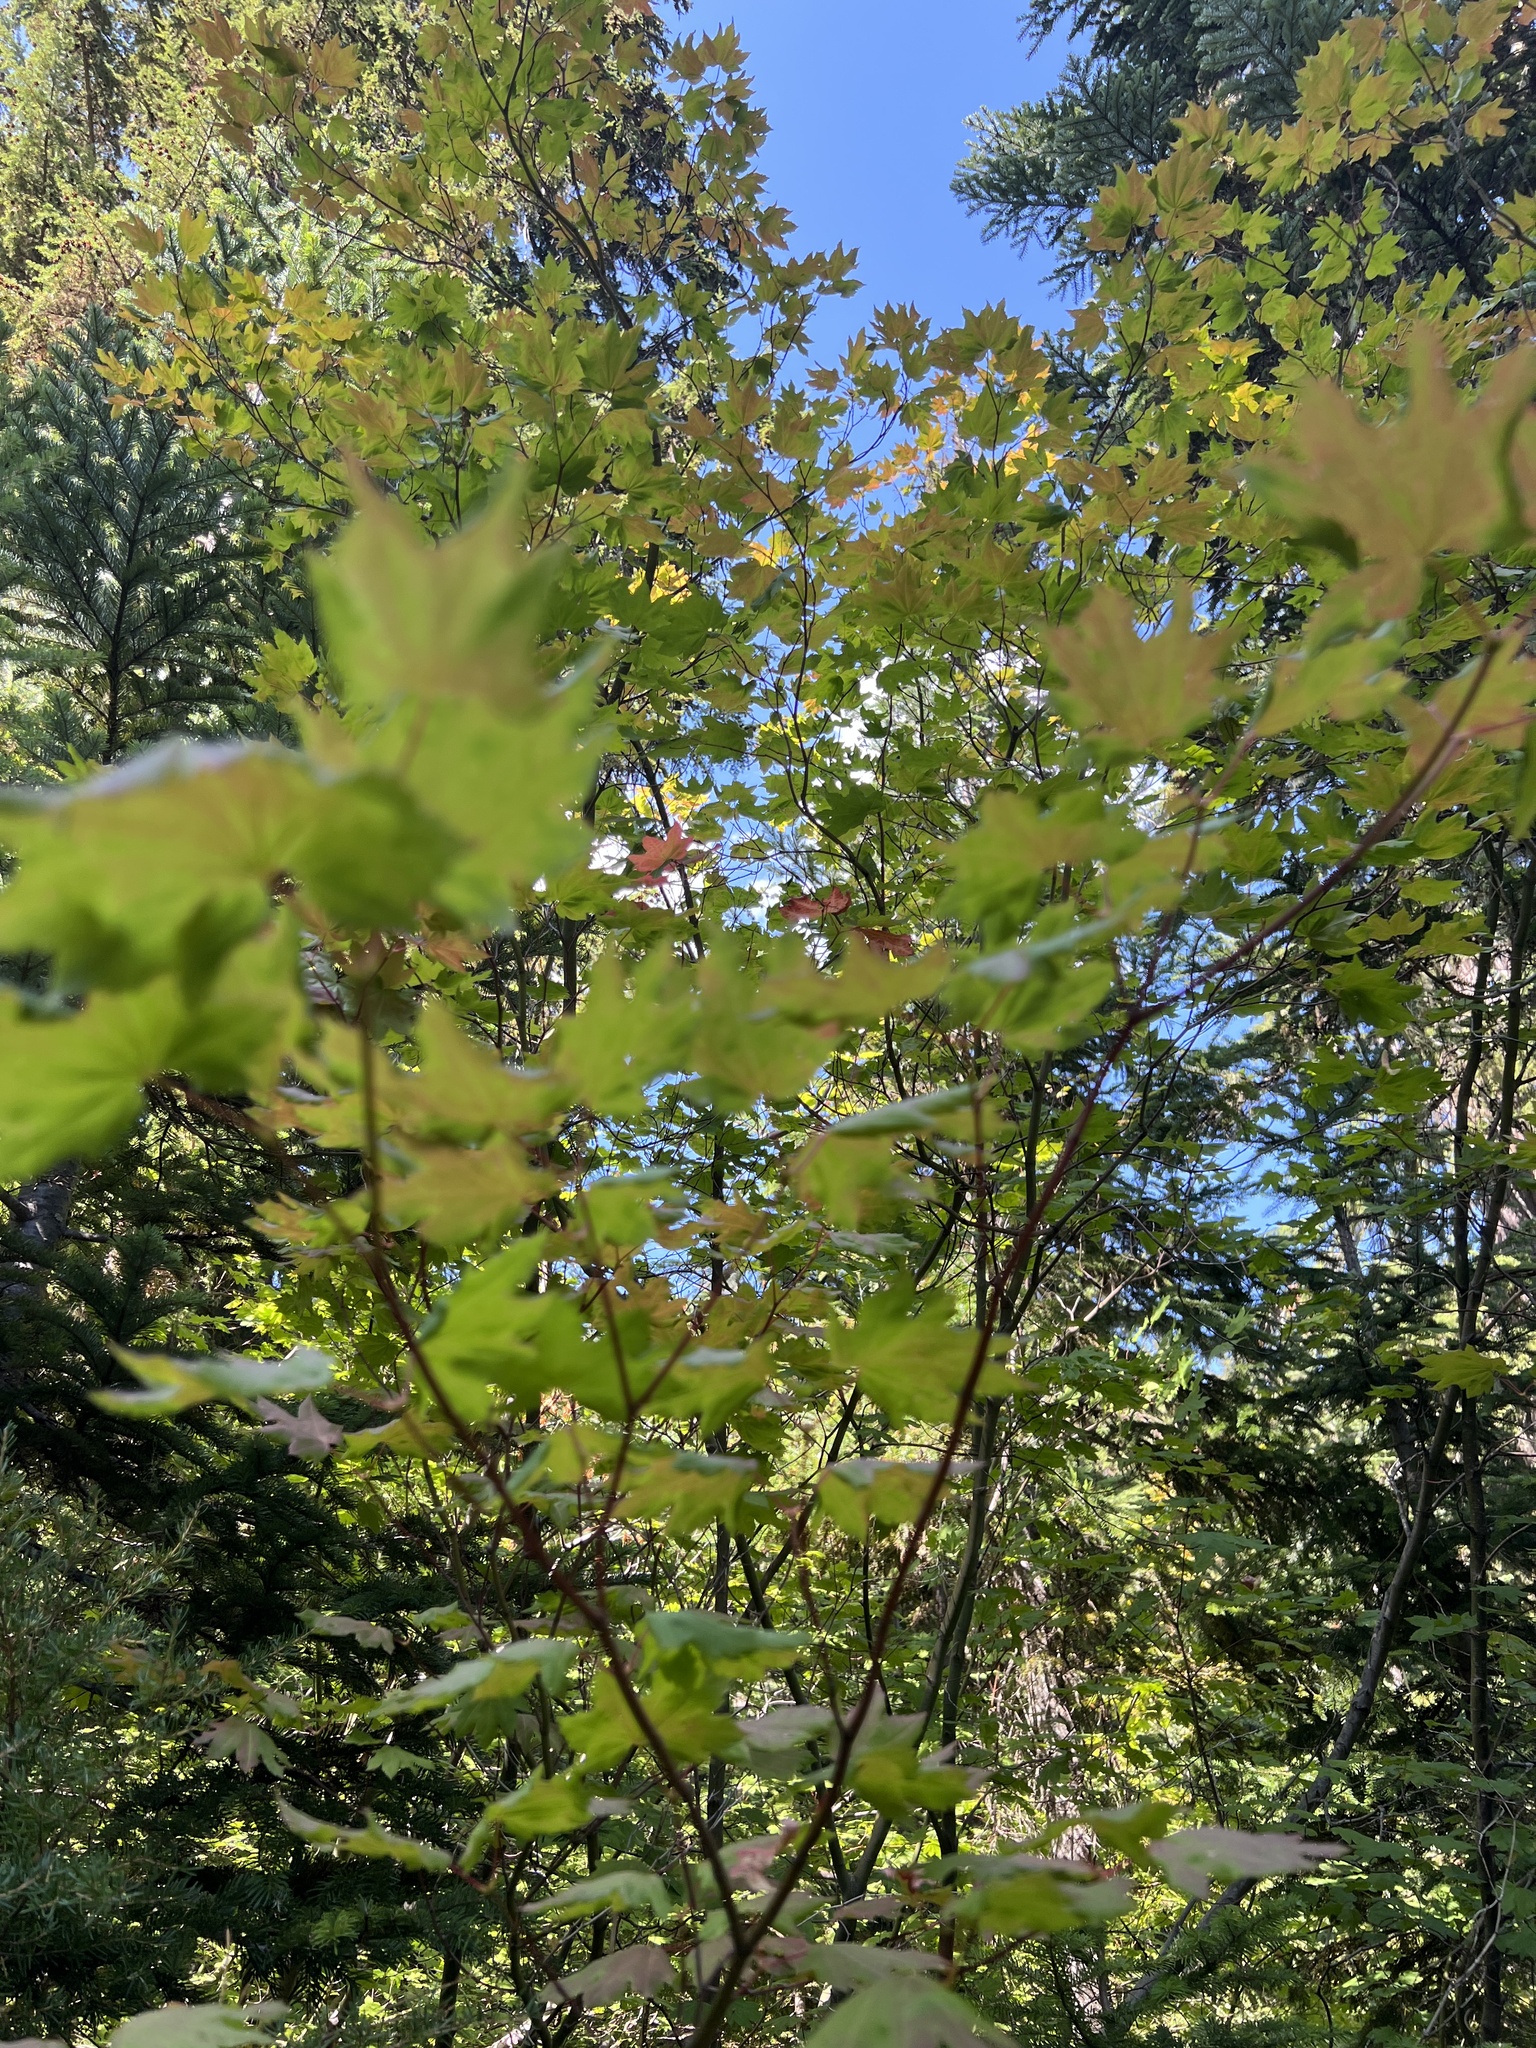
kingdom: Plantae
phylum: Tracheophyta
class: Magnoliopsida
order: Sapindales
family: Sapindaceae
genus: Acer
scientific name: Acer circinatum
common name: Vine maple
